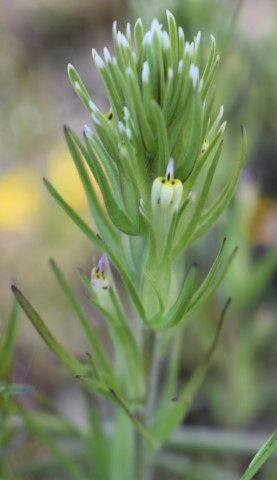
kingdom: Plantae
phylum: Tracheophyta
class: Magnoliopsida
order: Lamiales
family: Orobanchaceae
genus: Castilleja
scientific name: Castilleja attenuata
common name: Valley tassels
